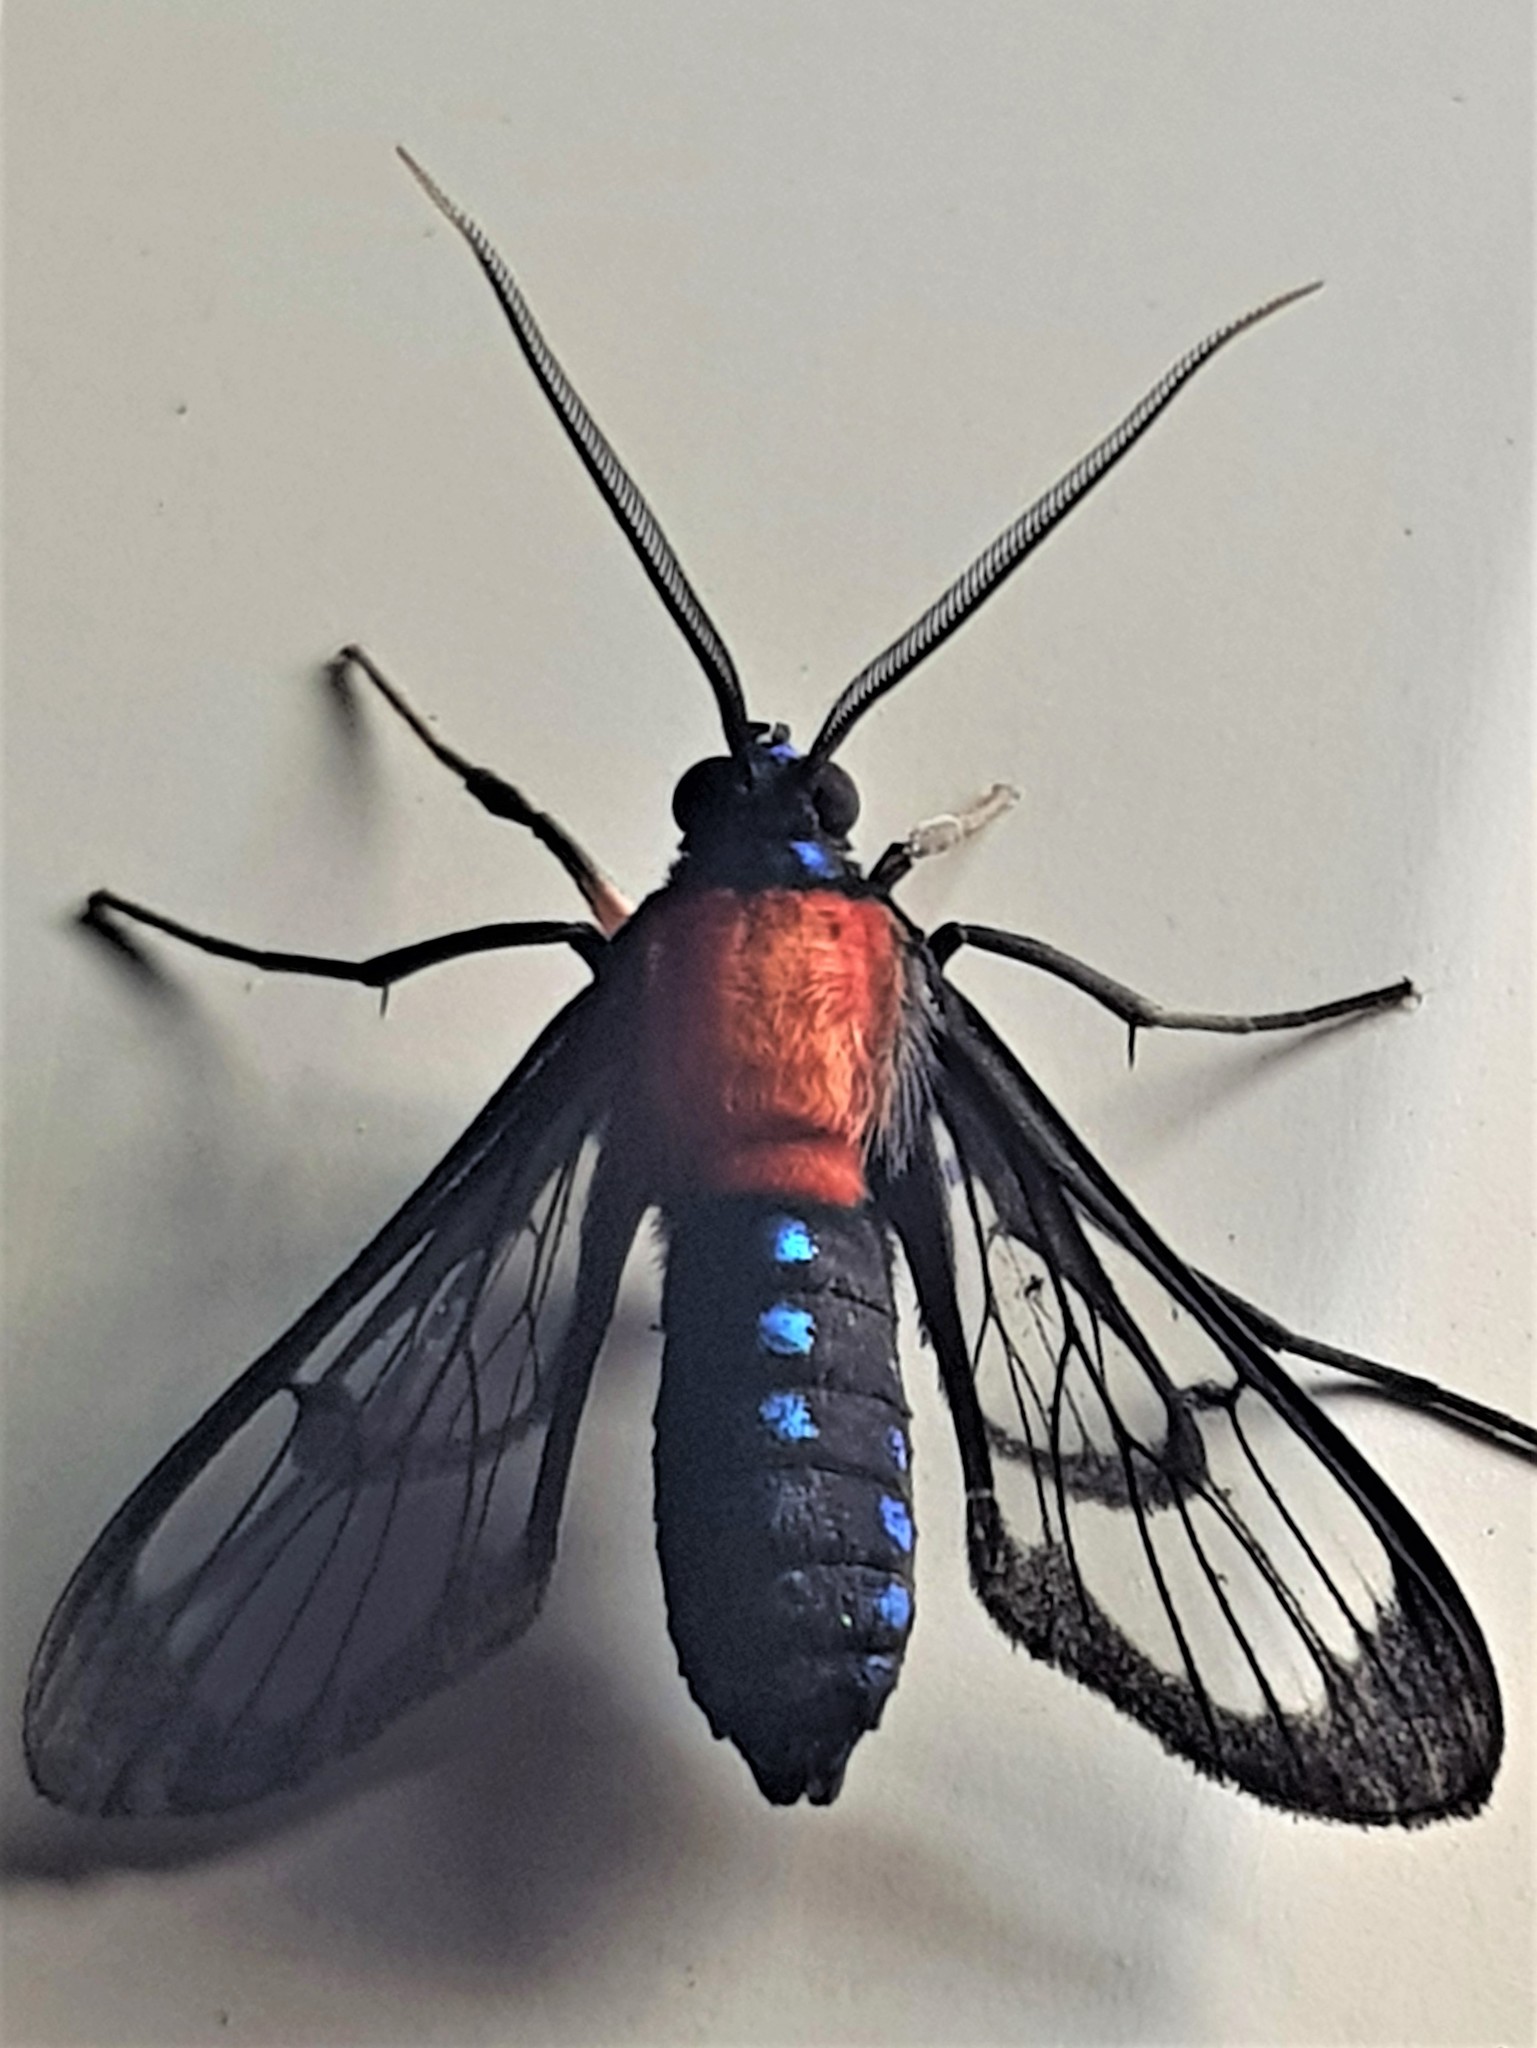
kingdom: Animalia
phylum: Arthropoda
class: Insecta
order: Lepidoptera
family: Erebidae
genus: Cosmosoma
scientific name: Cosmosoma ignidorsia
